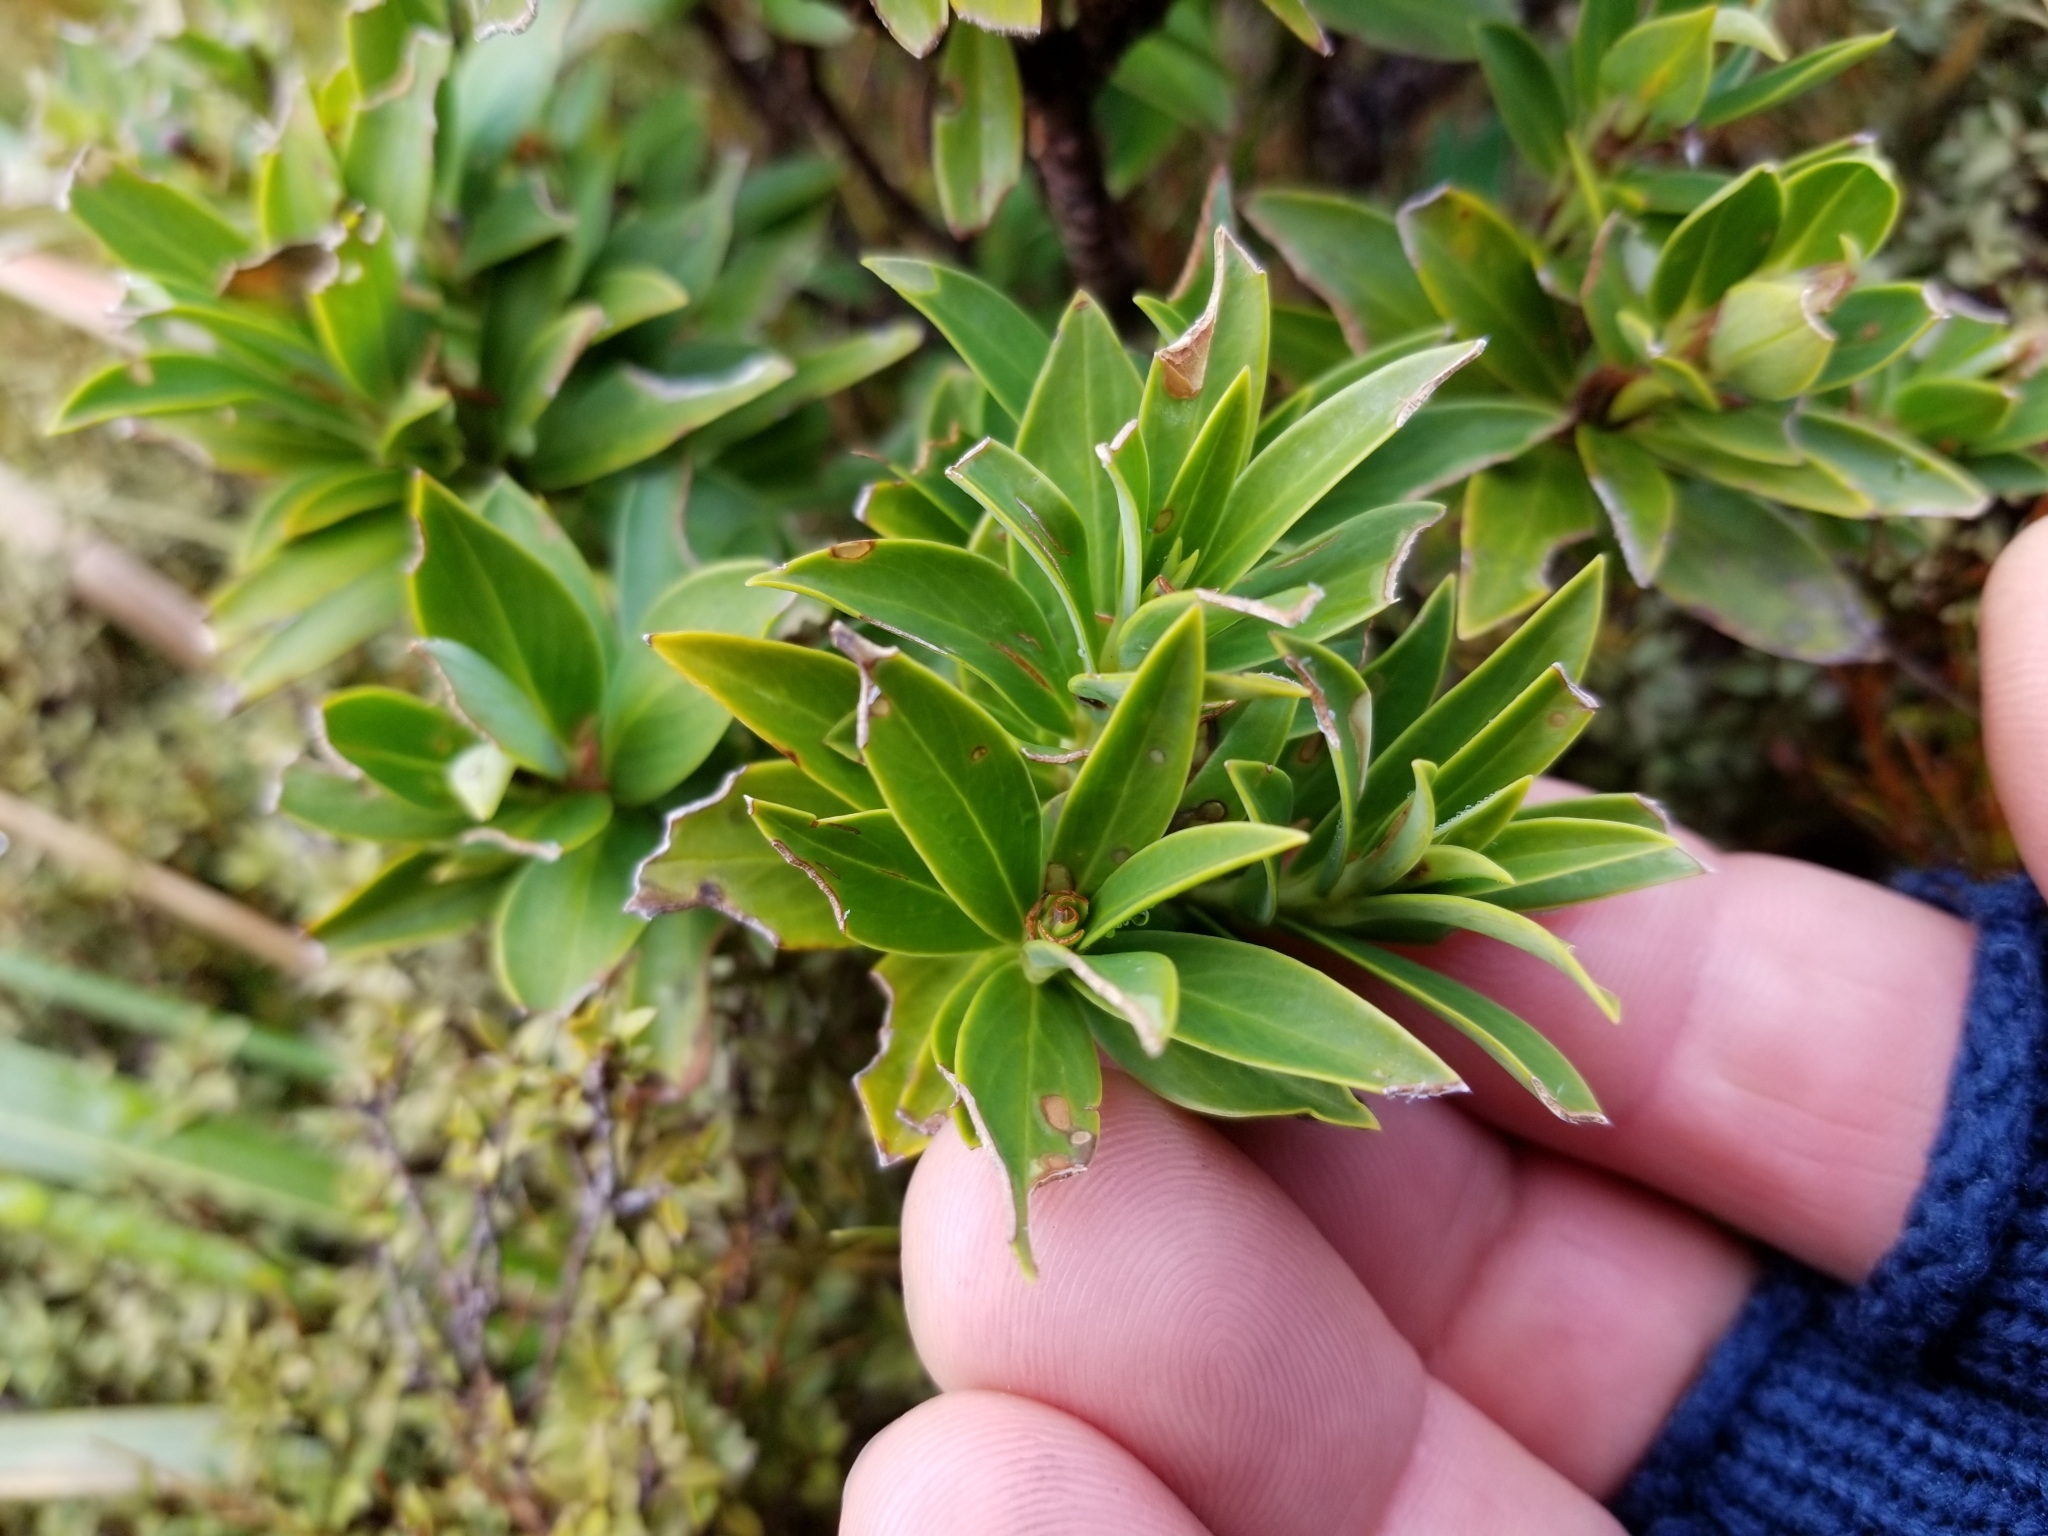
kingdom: Plantae
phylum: Tracheophyta
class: Magnoliopsida
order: Malvales
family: Thymelaeaceae
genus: Pimelea
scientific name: Pimelea gnidia
